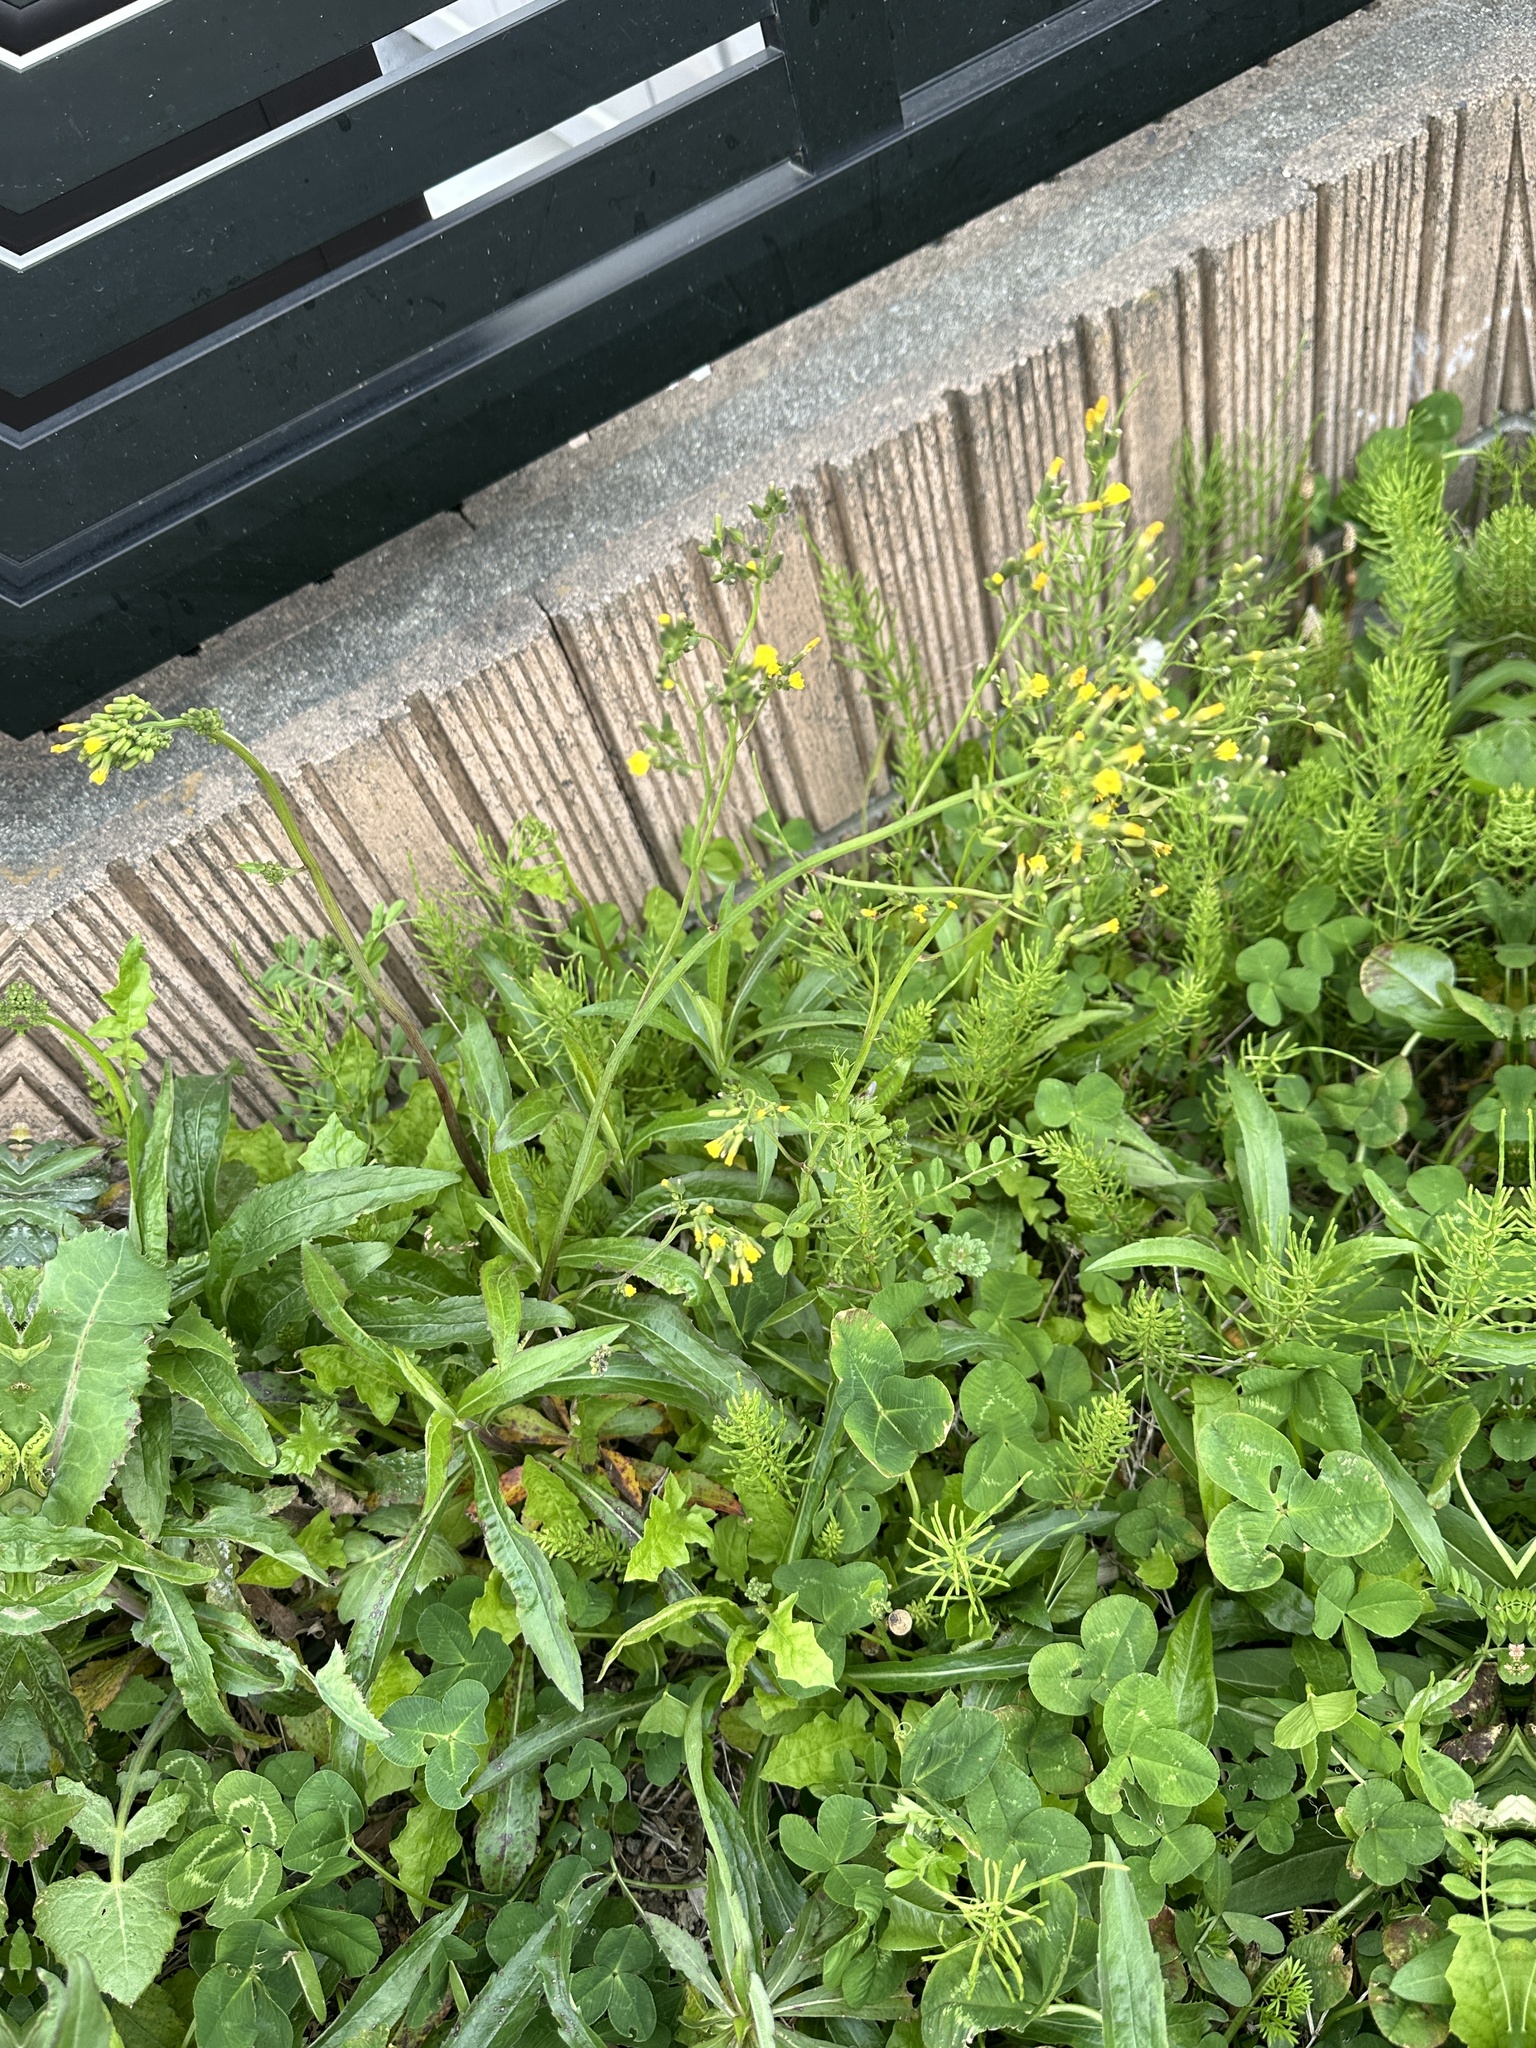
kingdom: Plantae
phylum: Tracheophyta
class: Magnoliopsida
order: Asterales
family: Asteraceae
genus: Youngia
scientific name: Youngia japonica
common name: Oriental false hawksbeard
